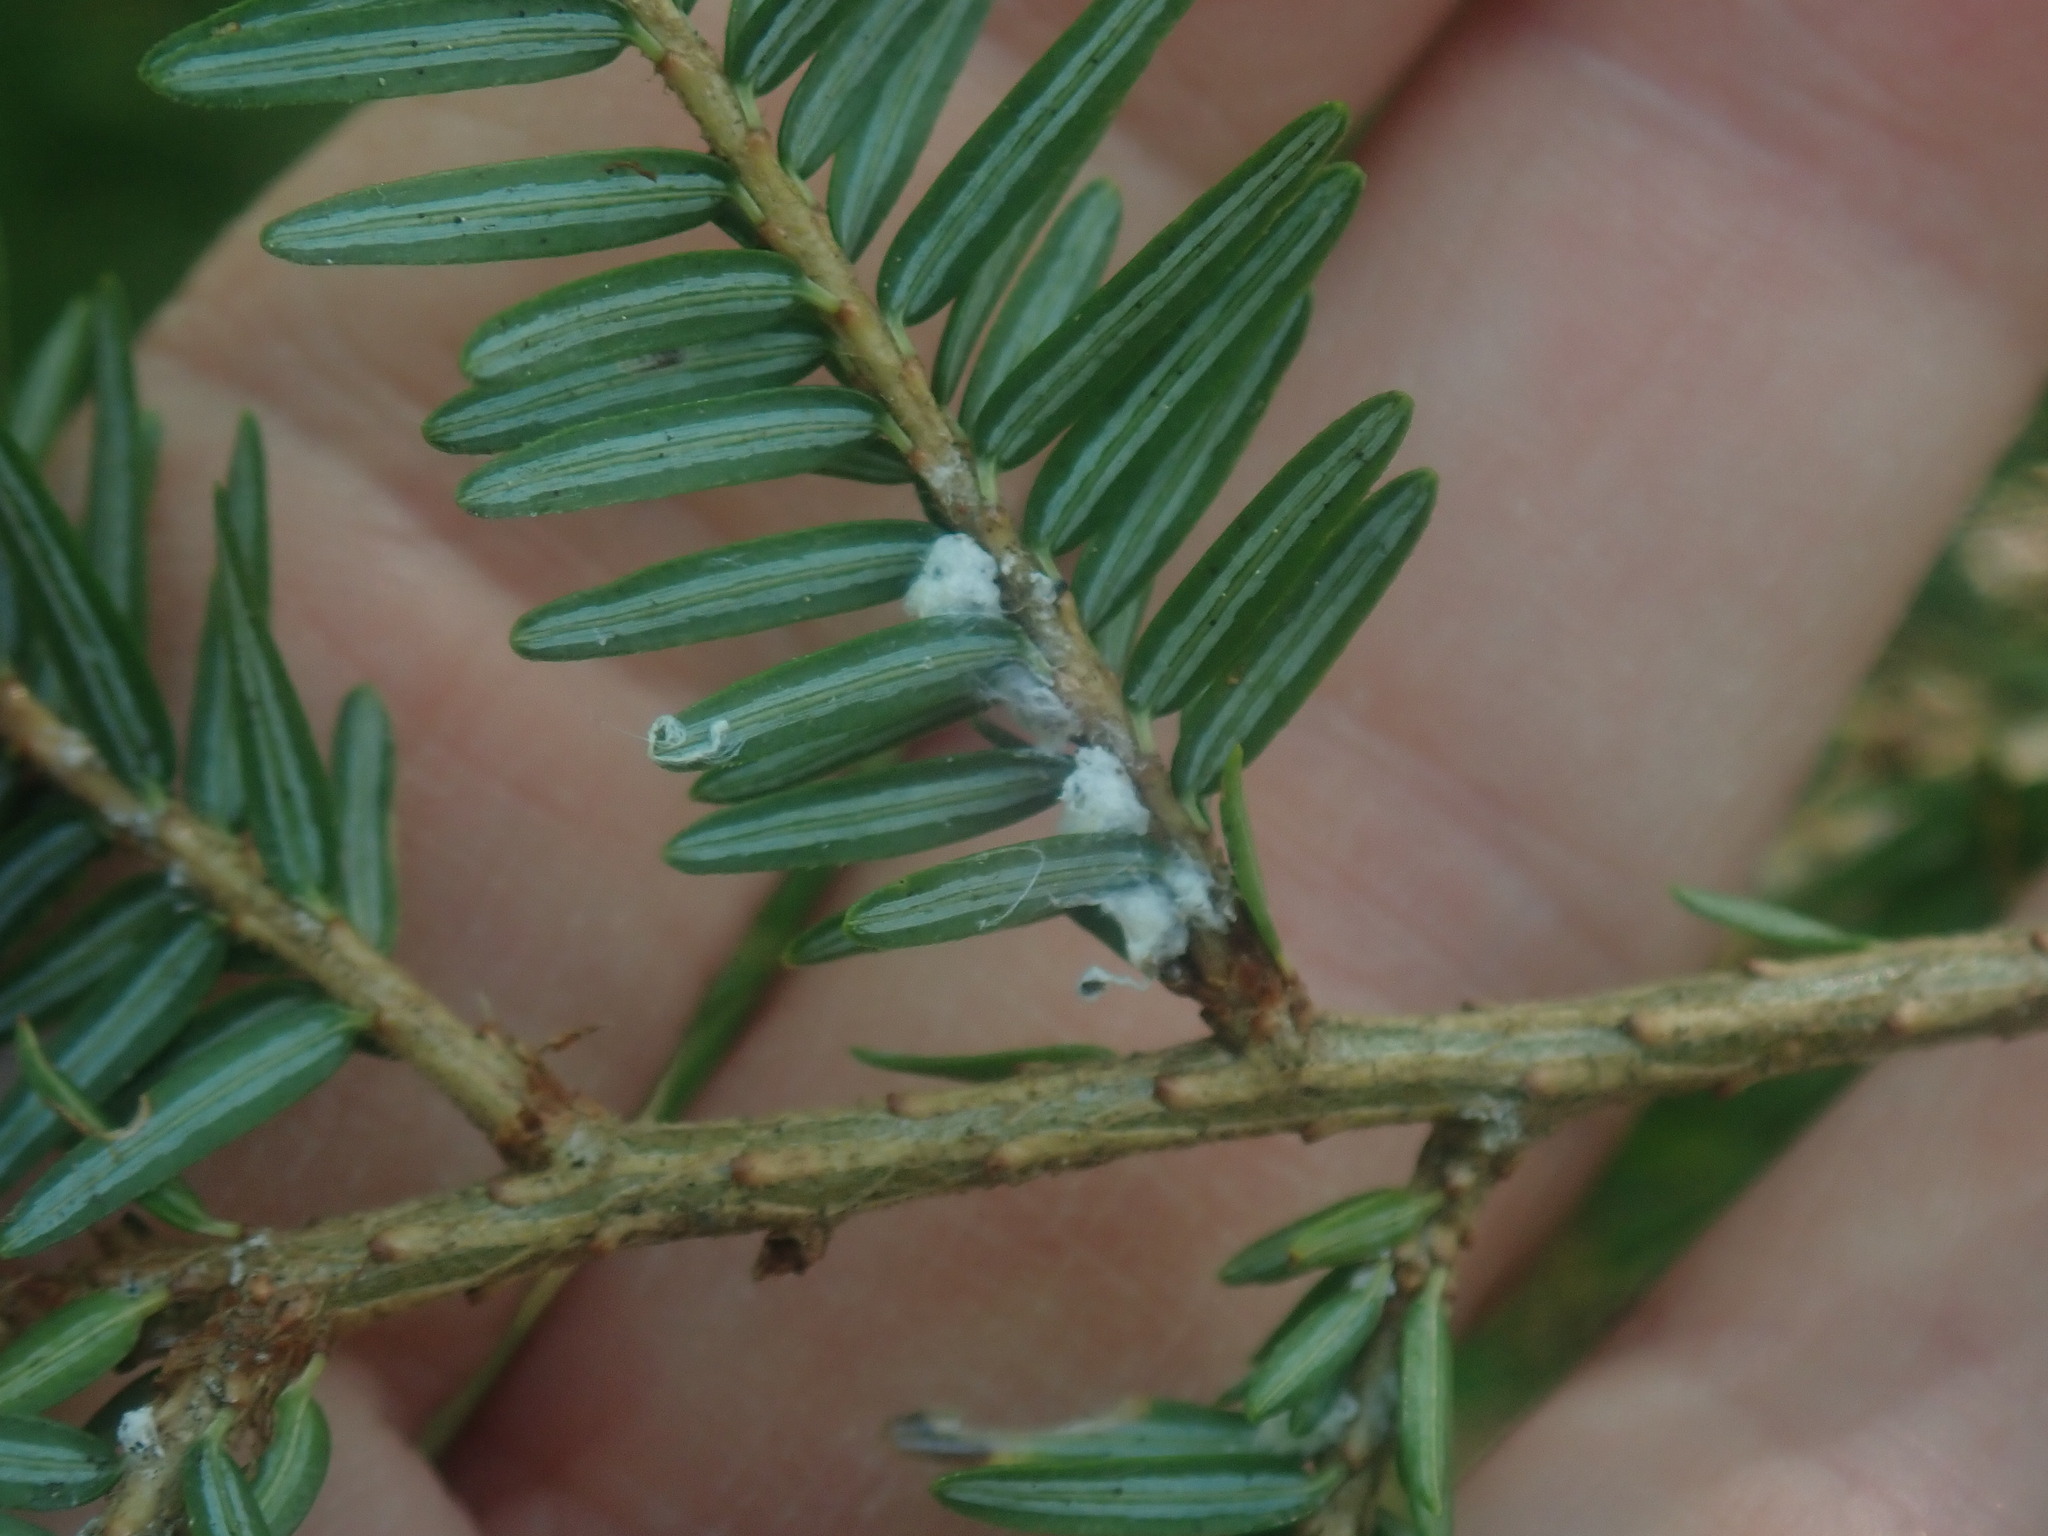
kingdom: Animalia
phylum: Arthropoda
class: Insecta
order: Hemiptera
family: Adelgidae
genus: Adelges
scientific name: Adelges tsugae
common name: Hemlock woolly adelgid
